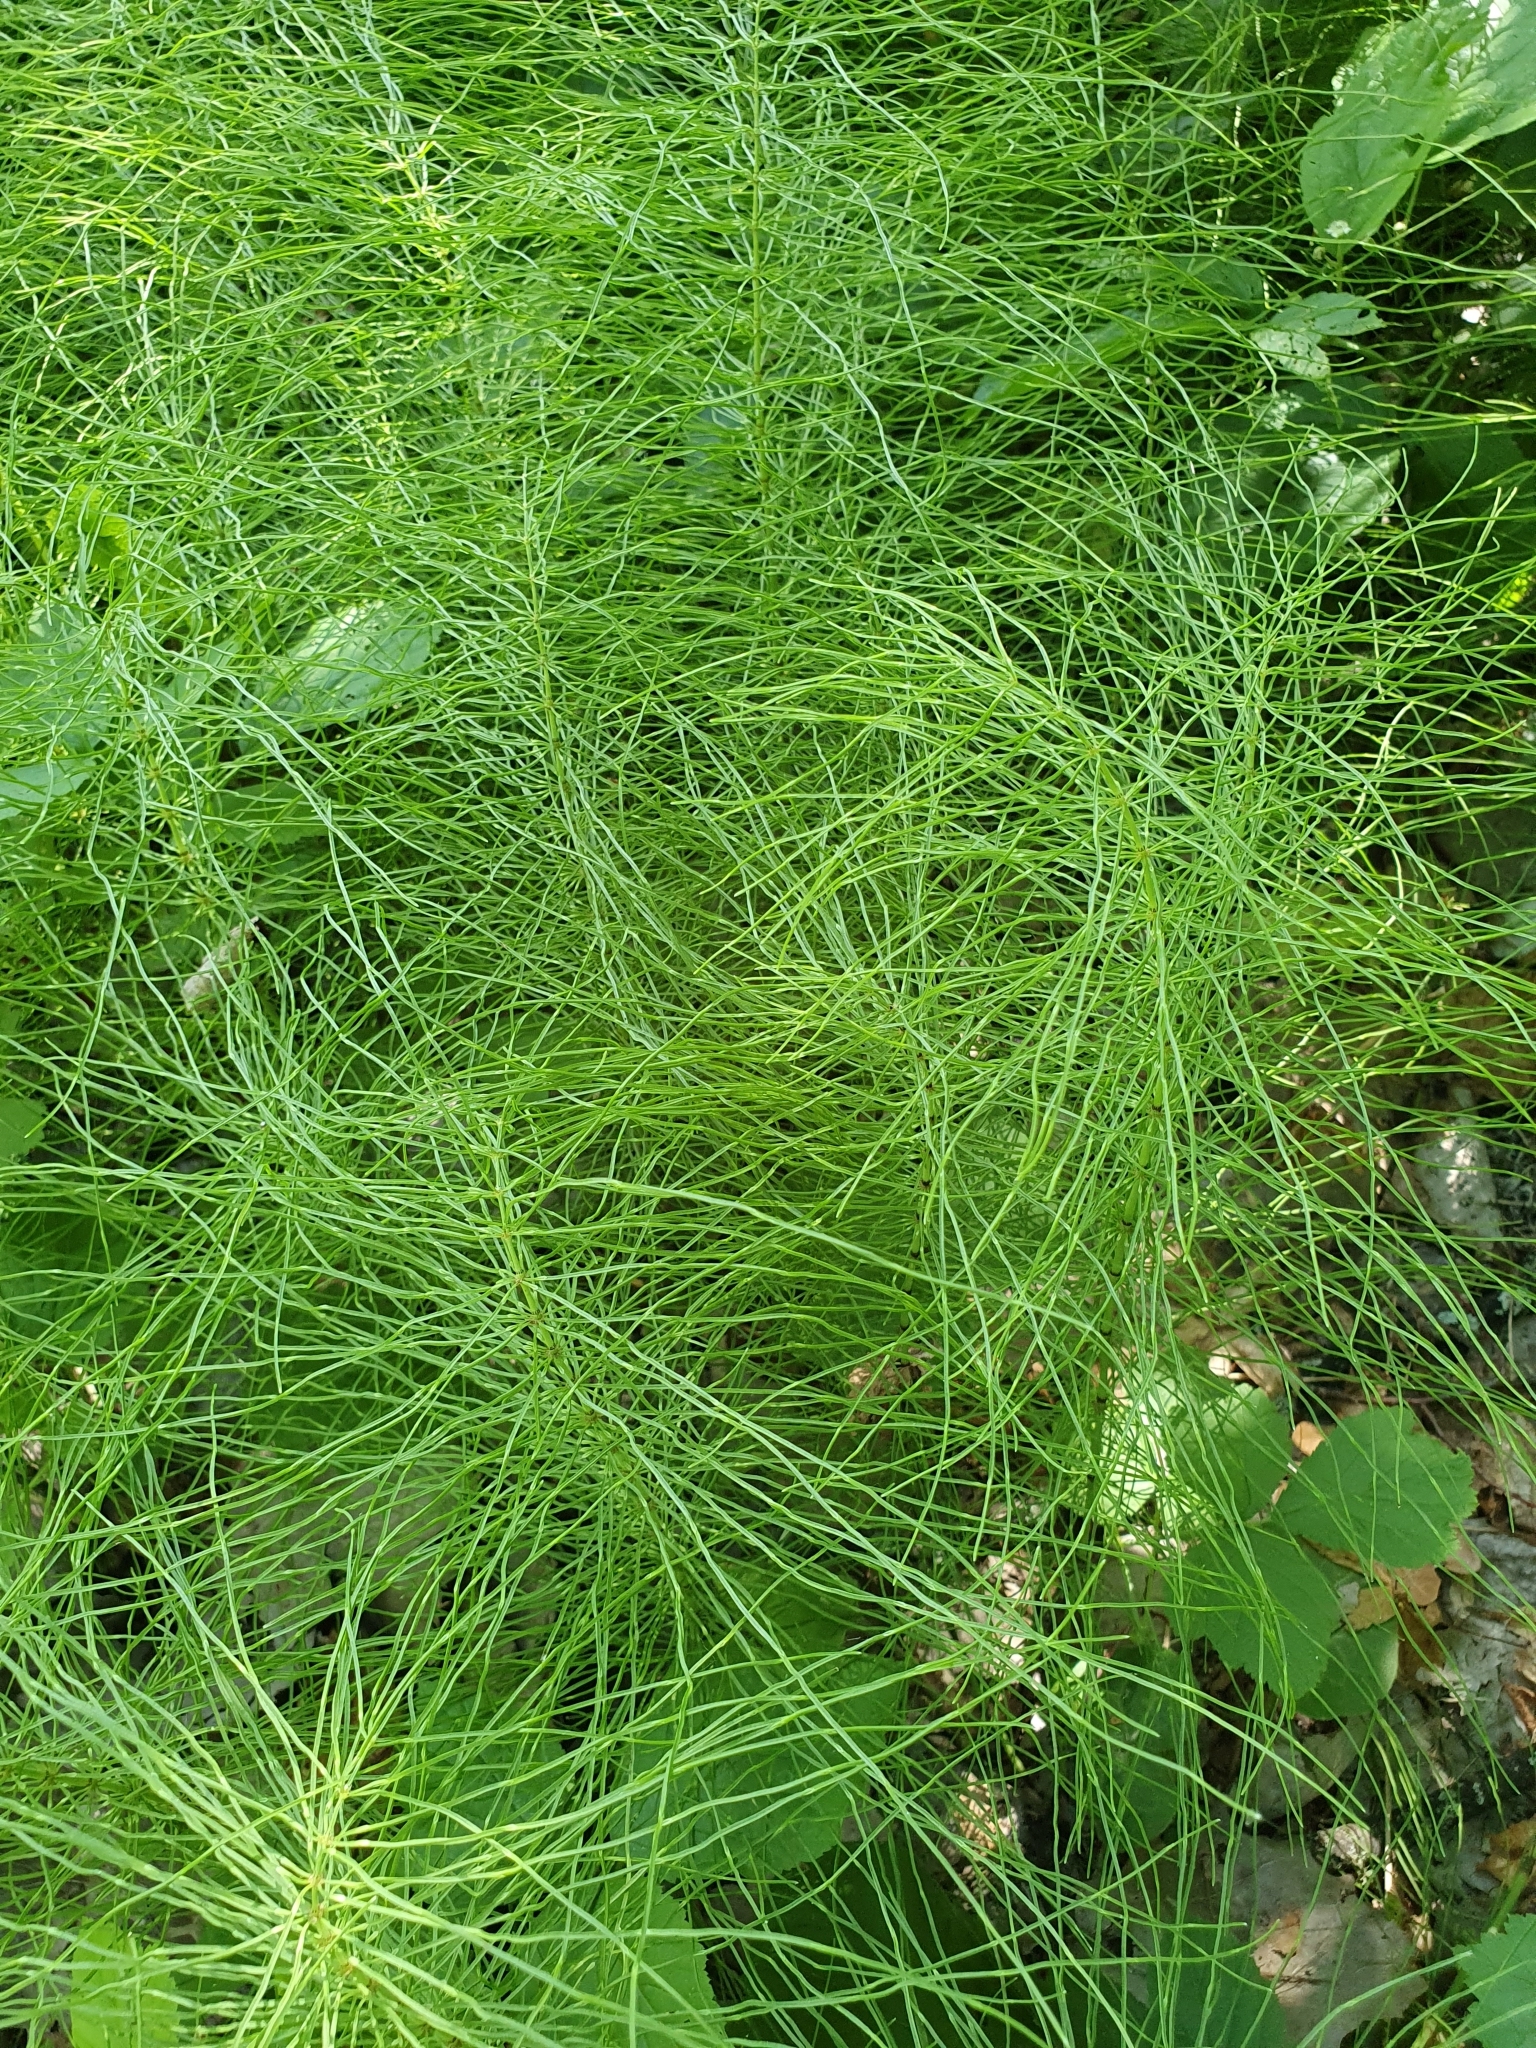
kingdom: Plantae
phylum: Tracheophyta
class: Polypodiopsida
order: Equisetales
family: Equisetaceae
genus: Equisetum
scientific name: Equisetum pratense
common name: Meadow horsetail
